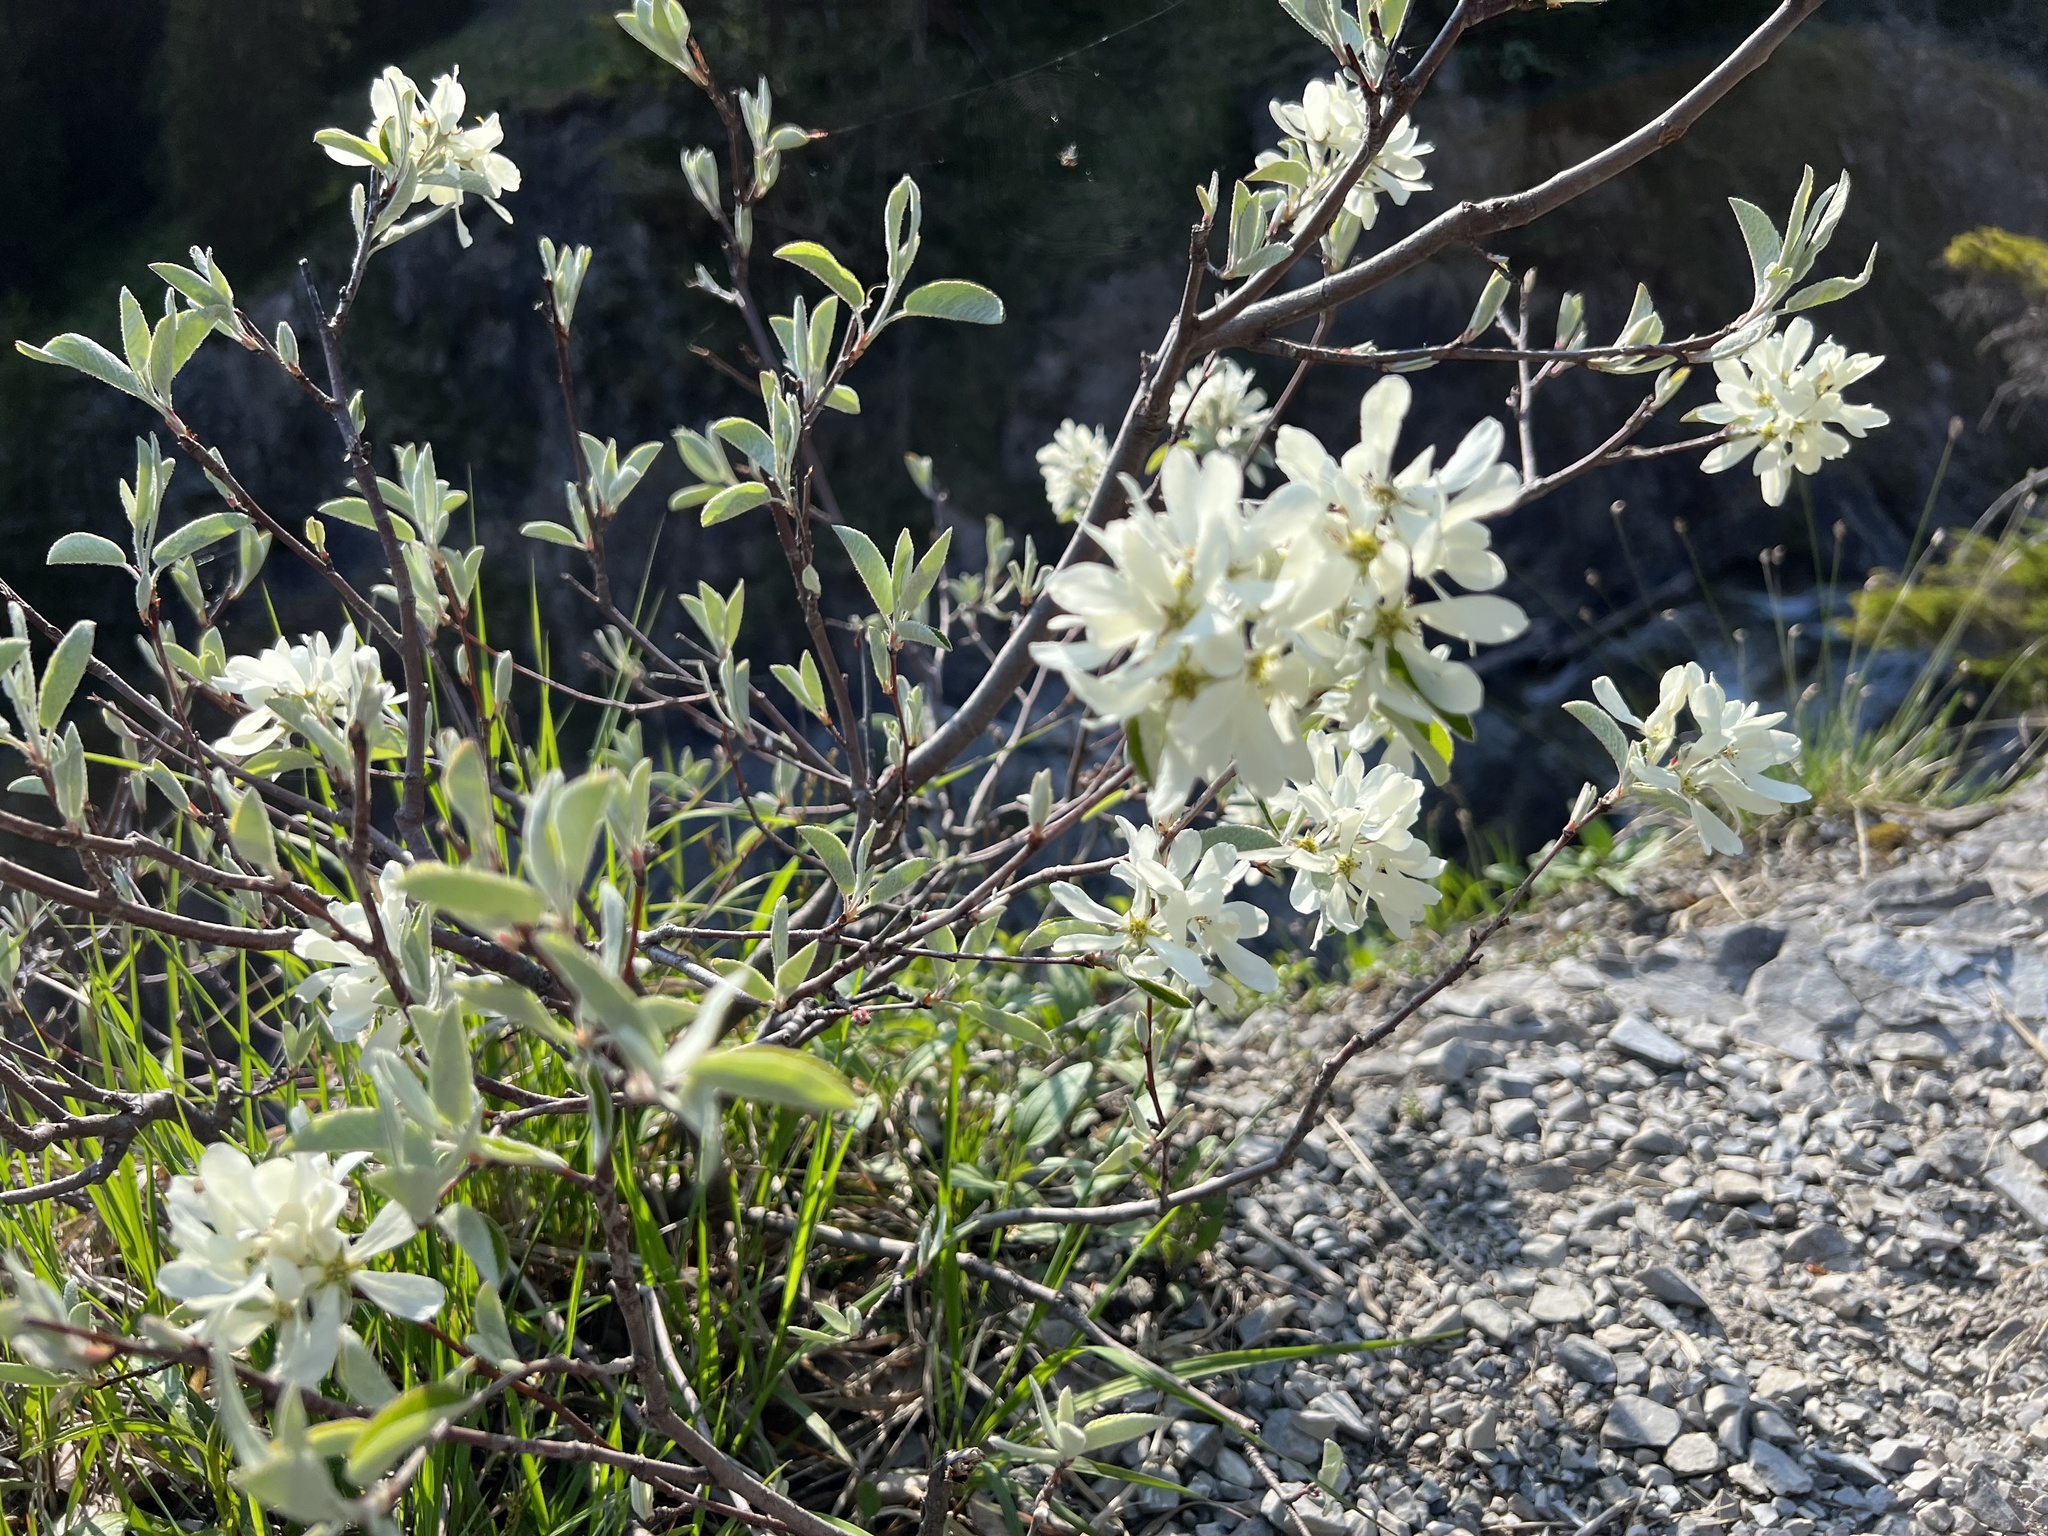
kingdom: Plantae
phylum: Tracheophyta
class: Magnoliopsida
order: Rosales
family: Rosaceae
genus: Amelanchier
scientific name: Amelanchier ovalis
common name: Serviceberry
